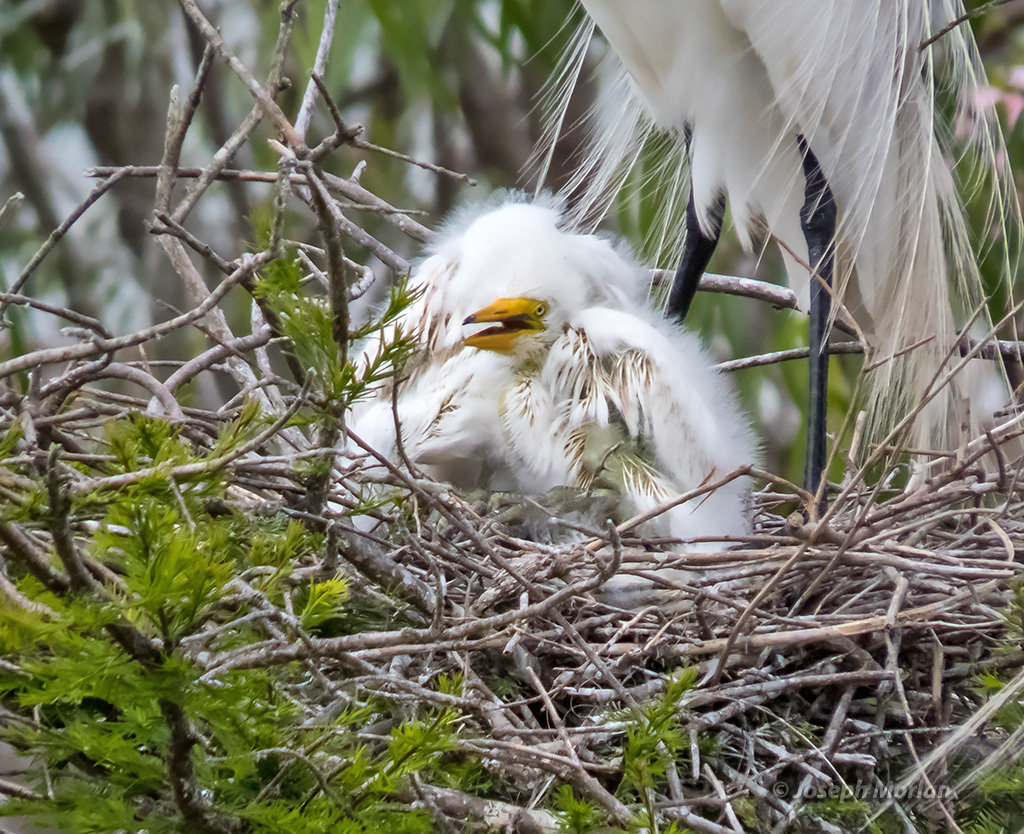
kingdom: Animalia
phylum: Chordata
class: Aves
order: Pelecaniformes
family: Ardeidae
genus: Ardea
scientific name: Ardea alba
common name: Great egret
